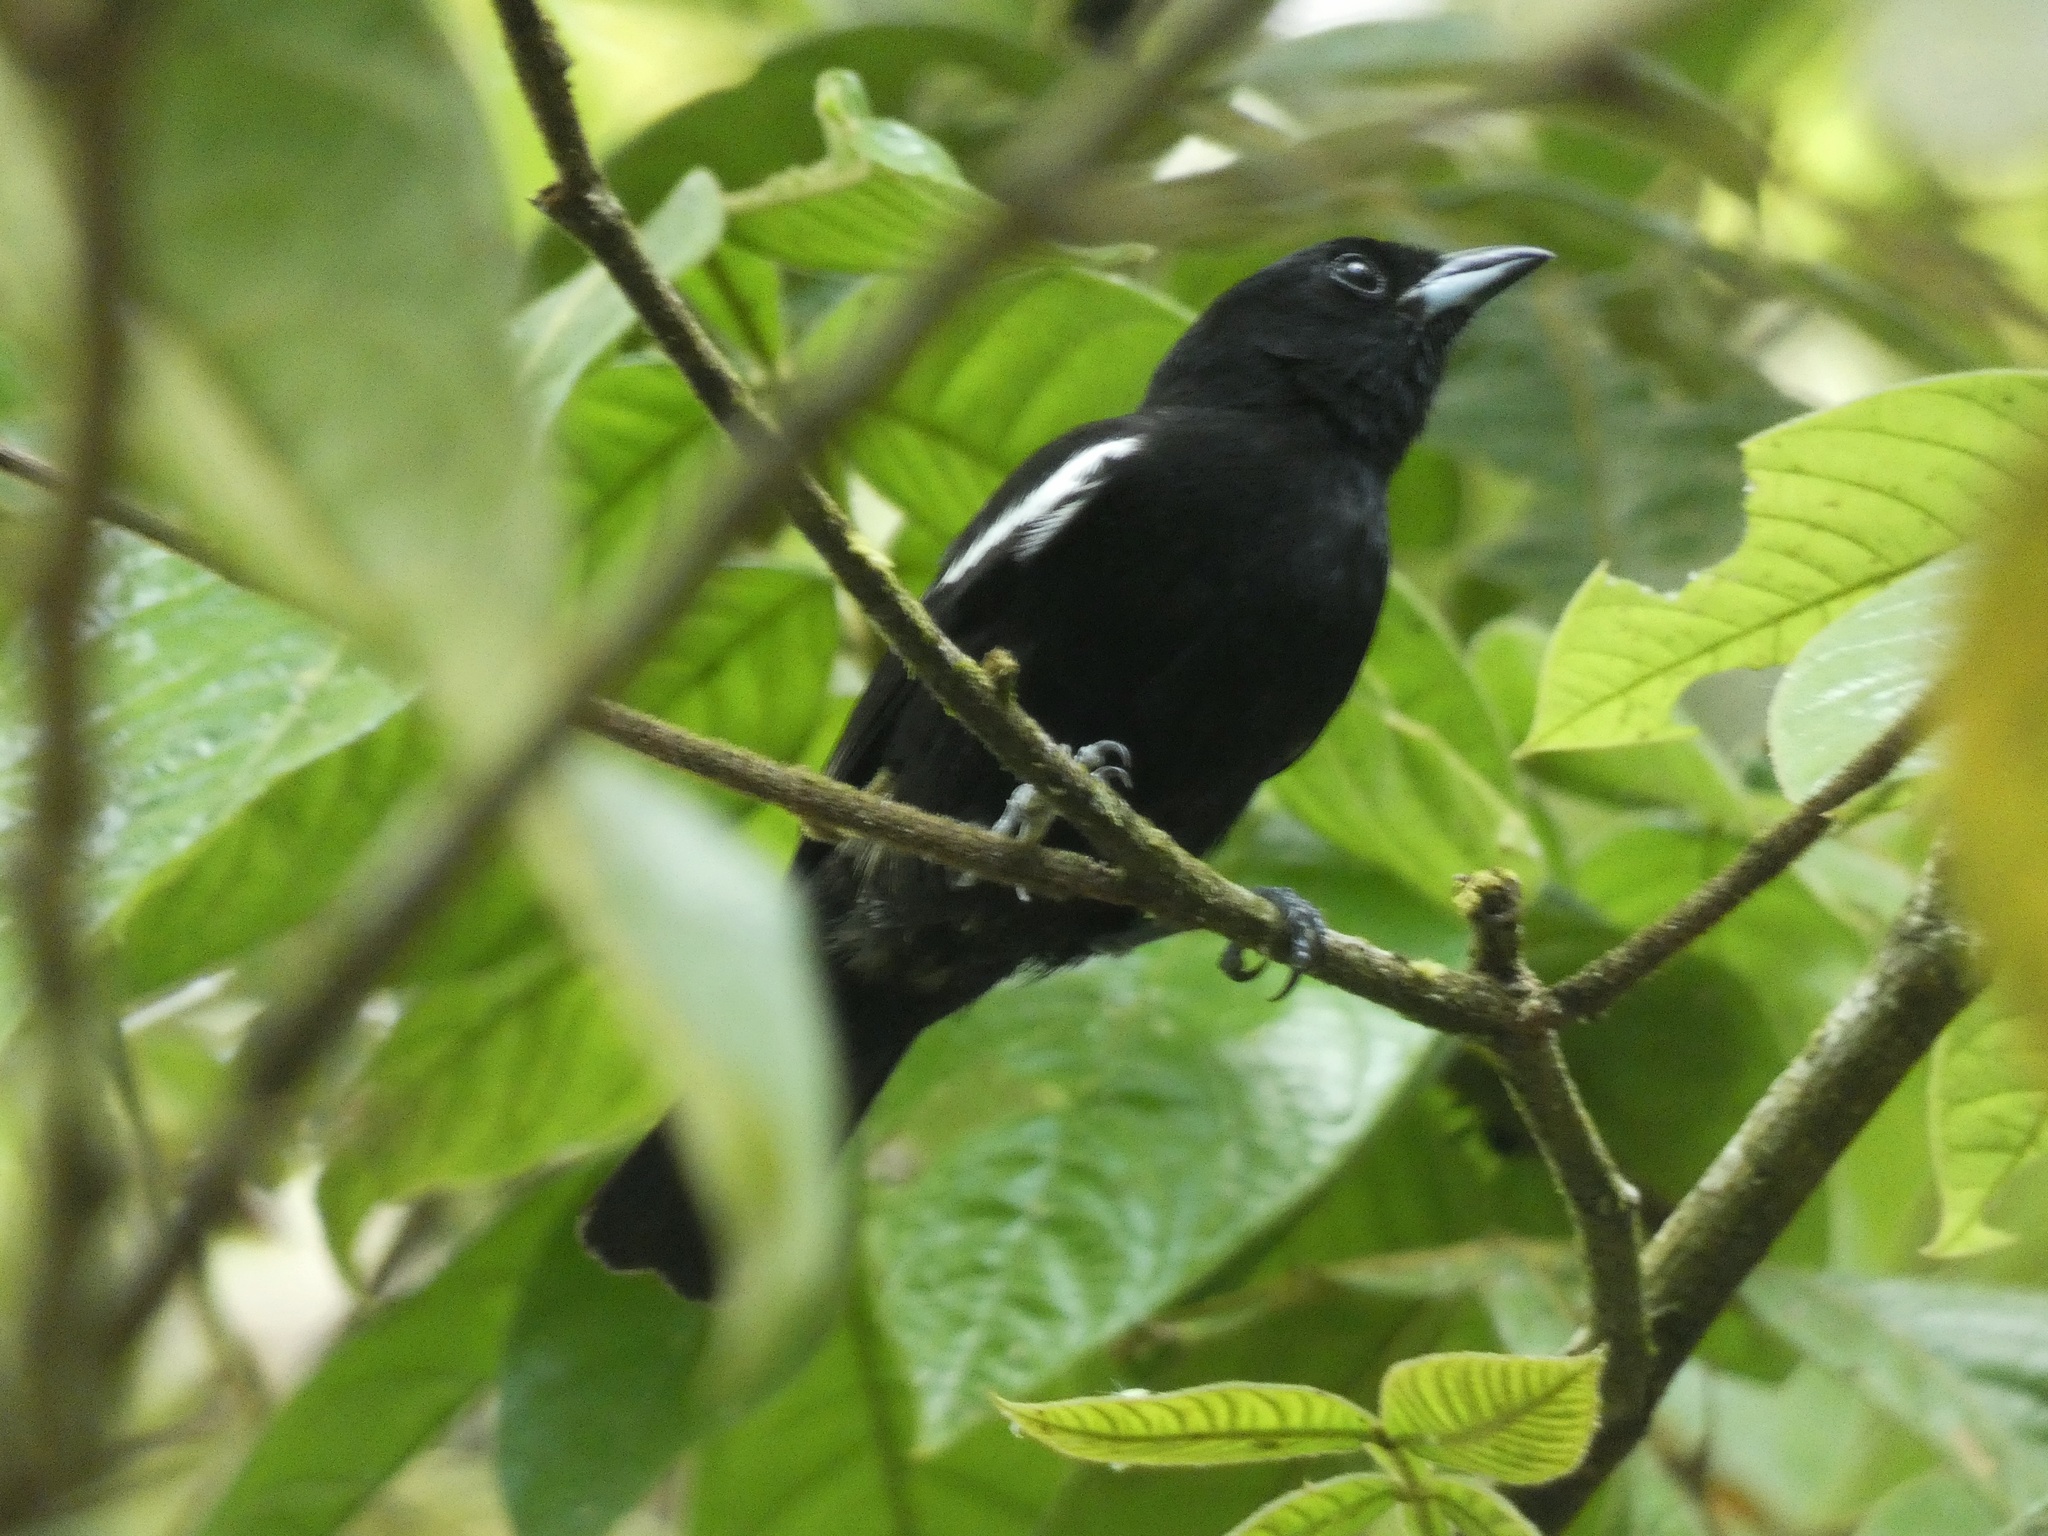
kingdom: Animalia
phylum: Chordata
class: Aves
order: Passeriformes
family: Thraupidae
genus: Loriotus
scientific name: Loriotus luctuosus
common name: White-shouldered tanager
